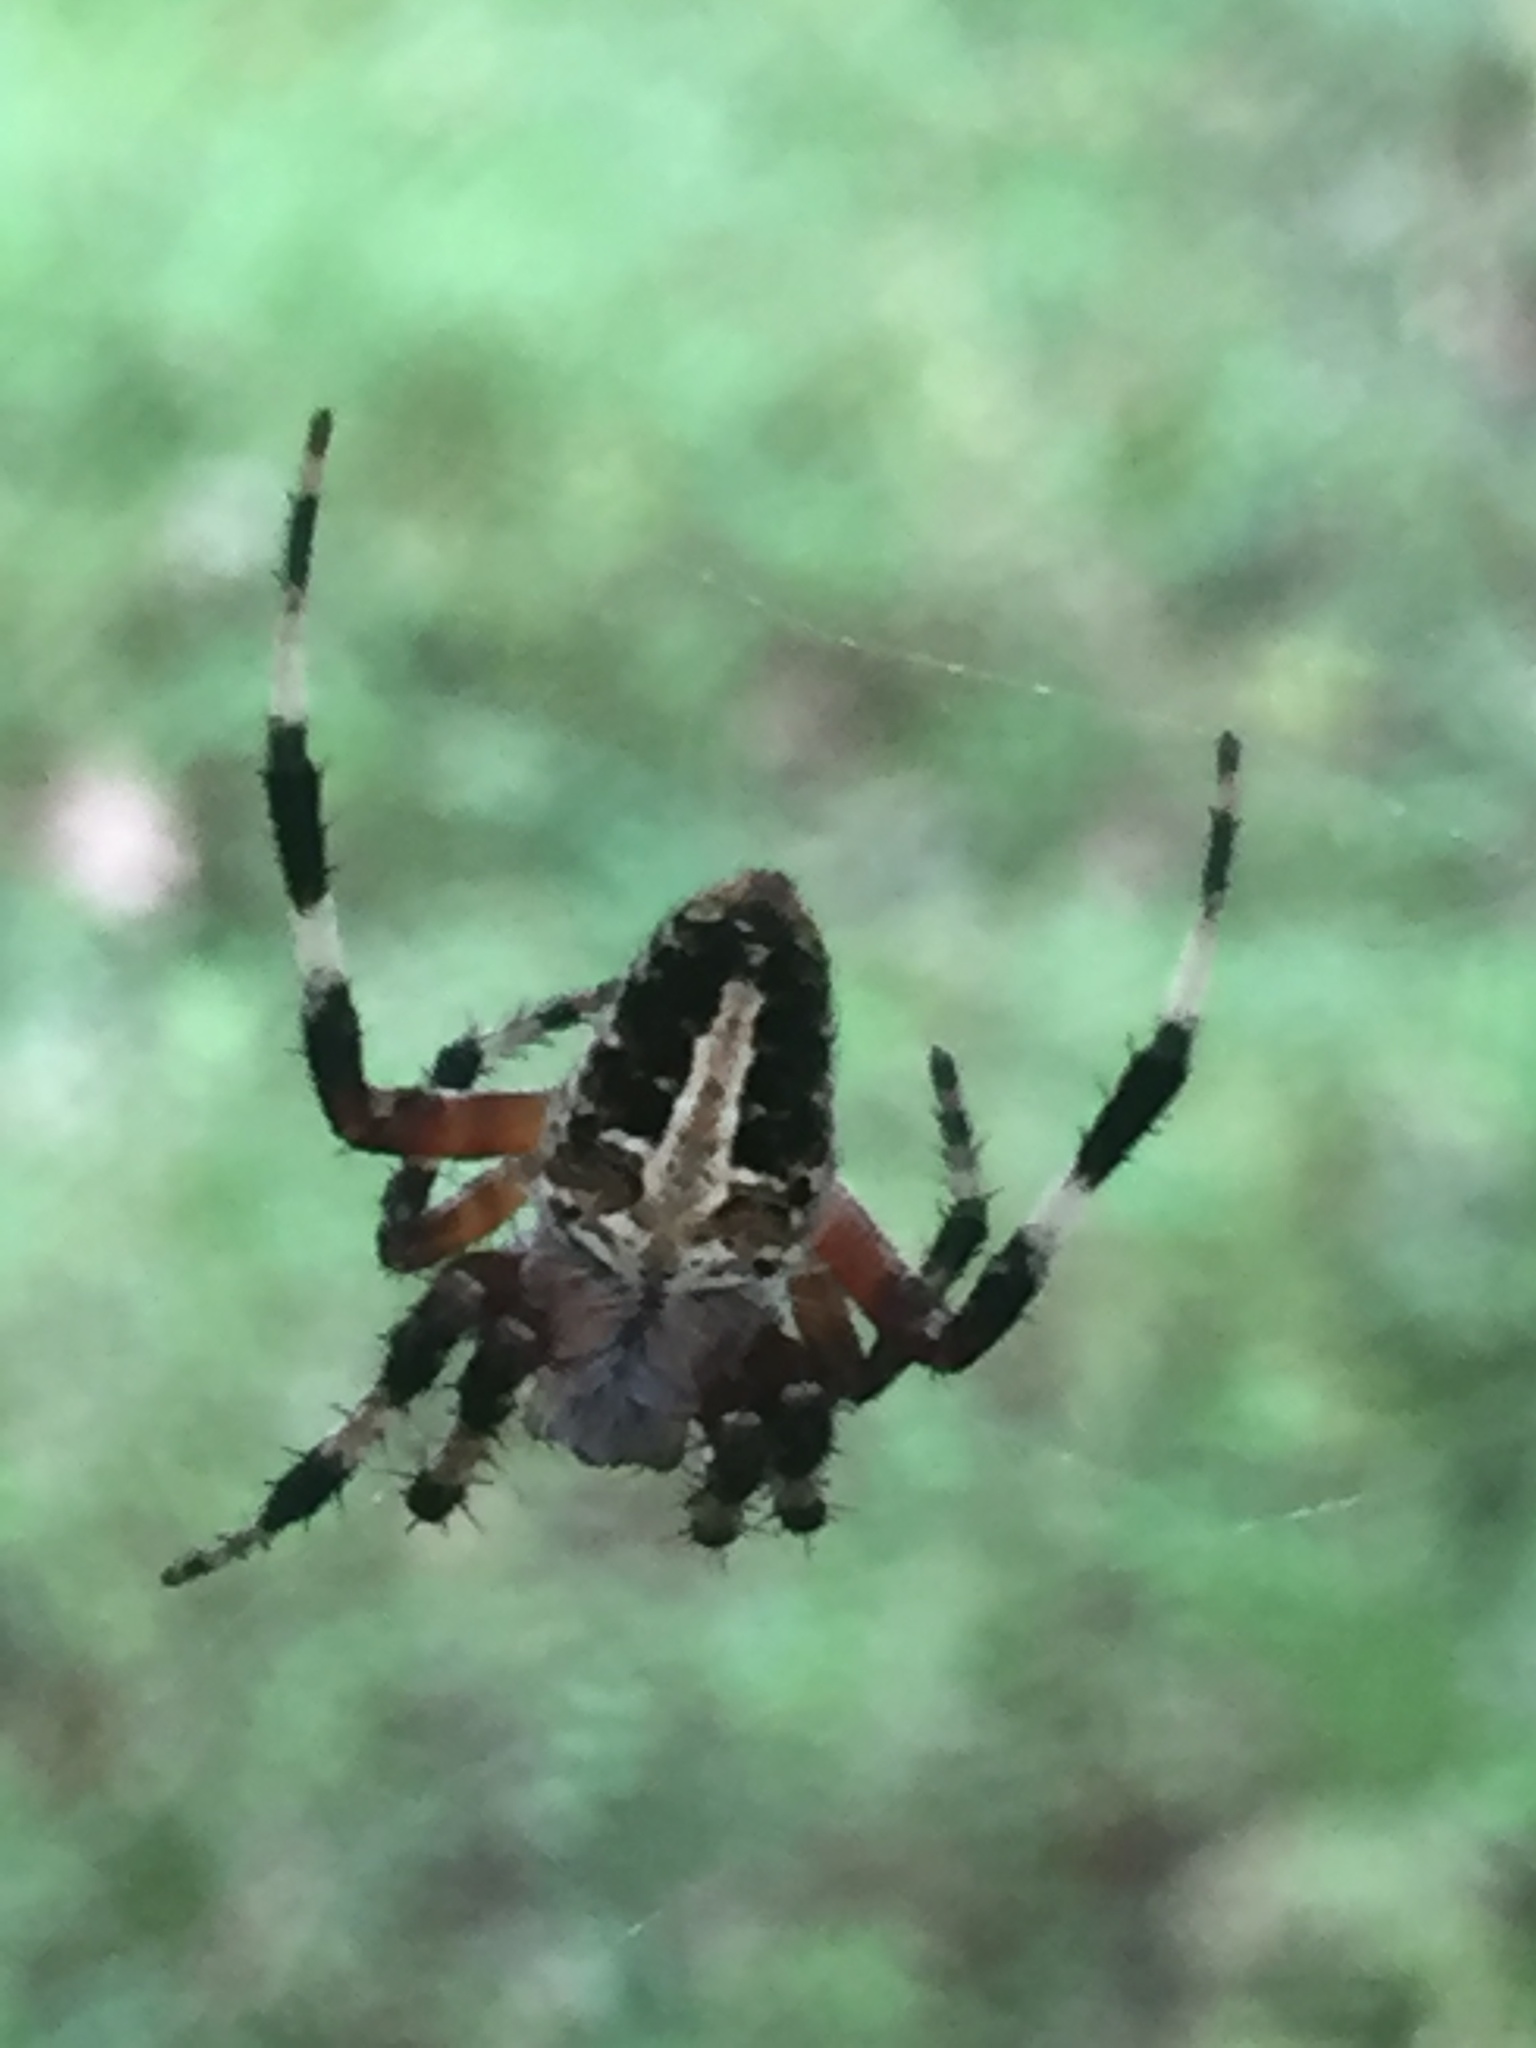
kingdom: Animalia
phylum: Arthropoda
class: Arachnida
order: Araneae
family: Araneidae
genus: Neoscona
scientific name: Neoscona domiciliorum
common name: Red-femured spotted orbweaver
